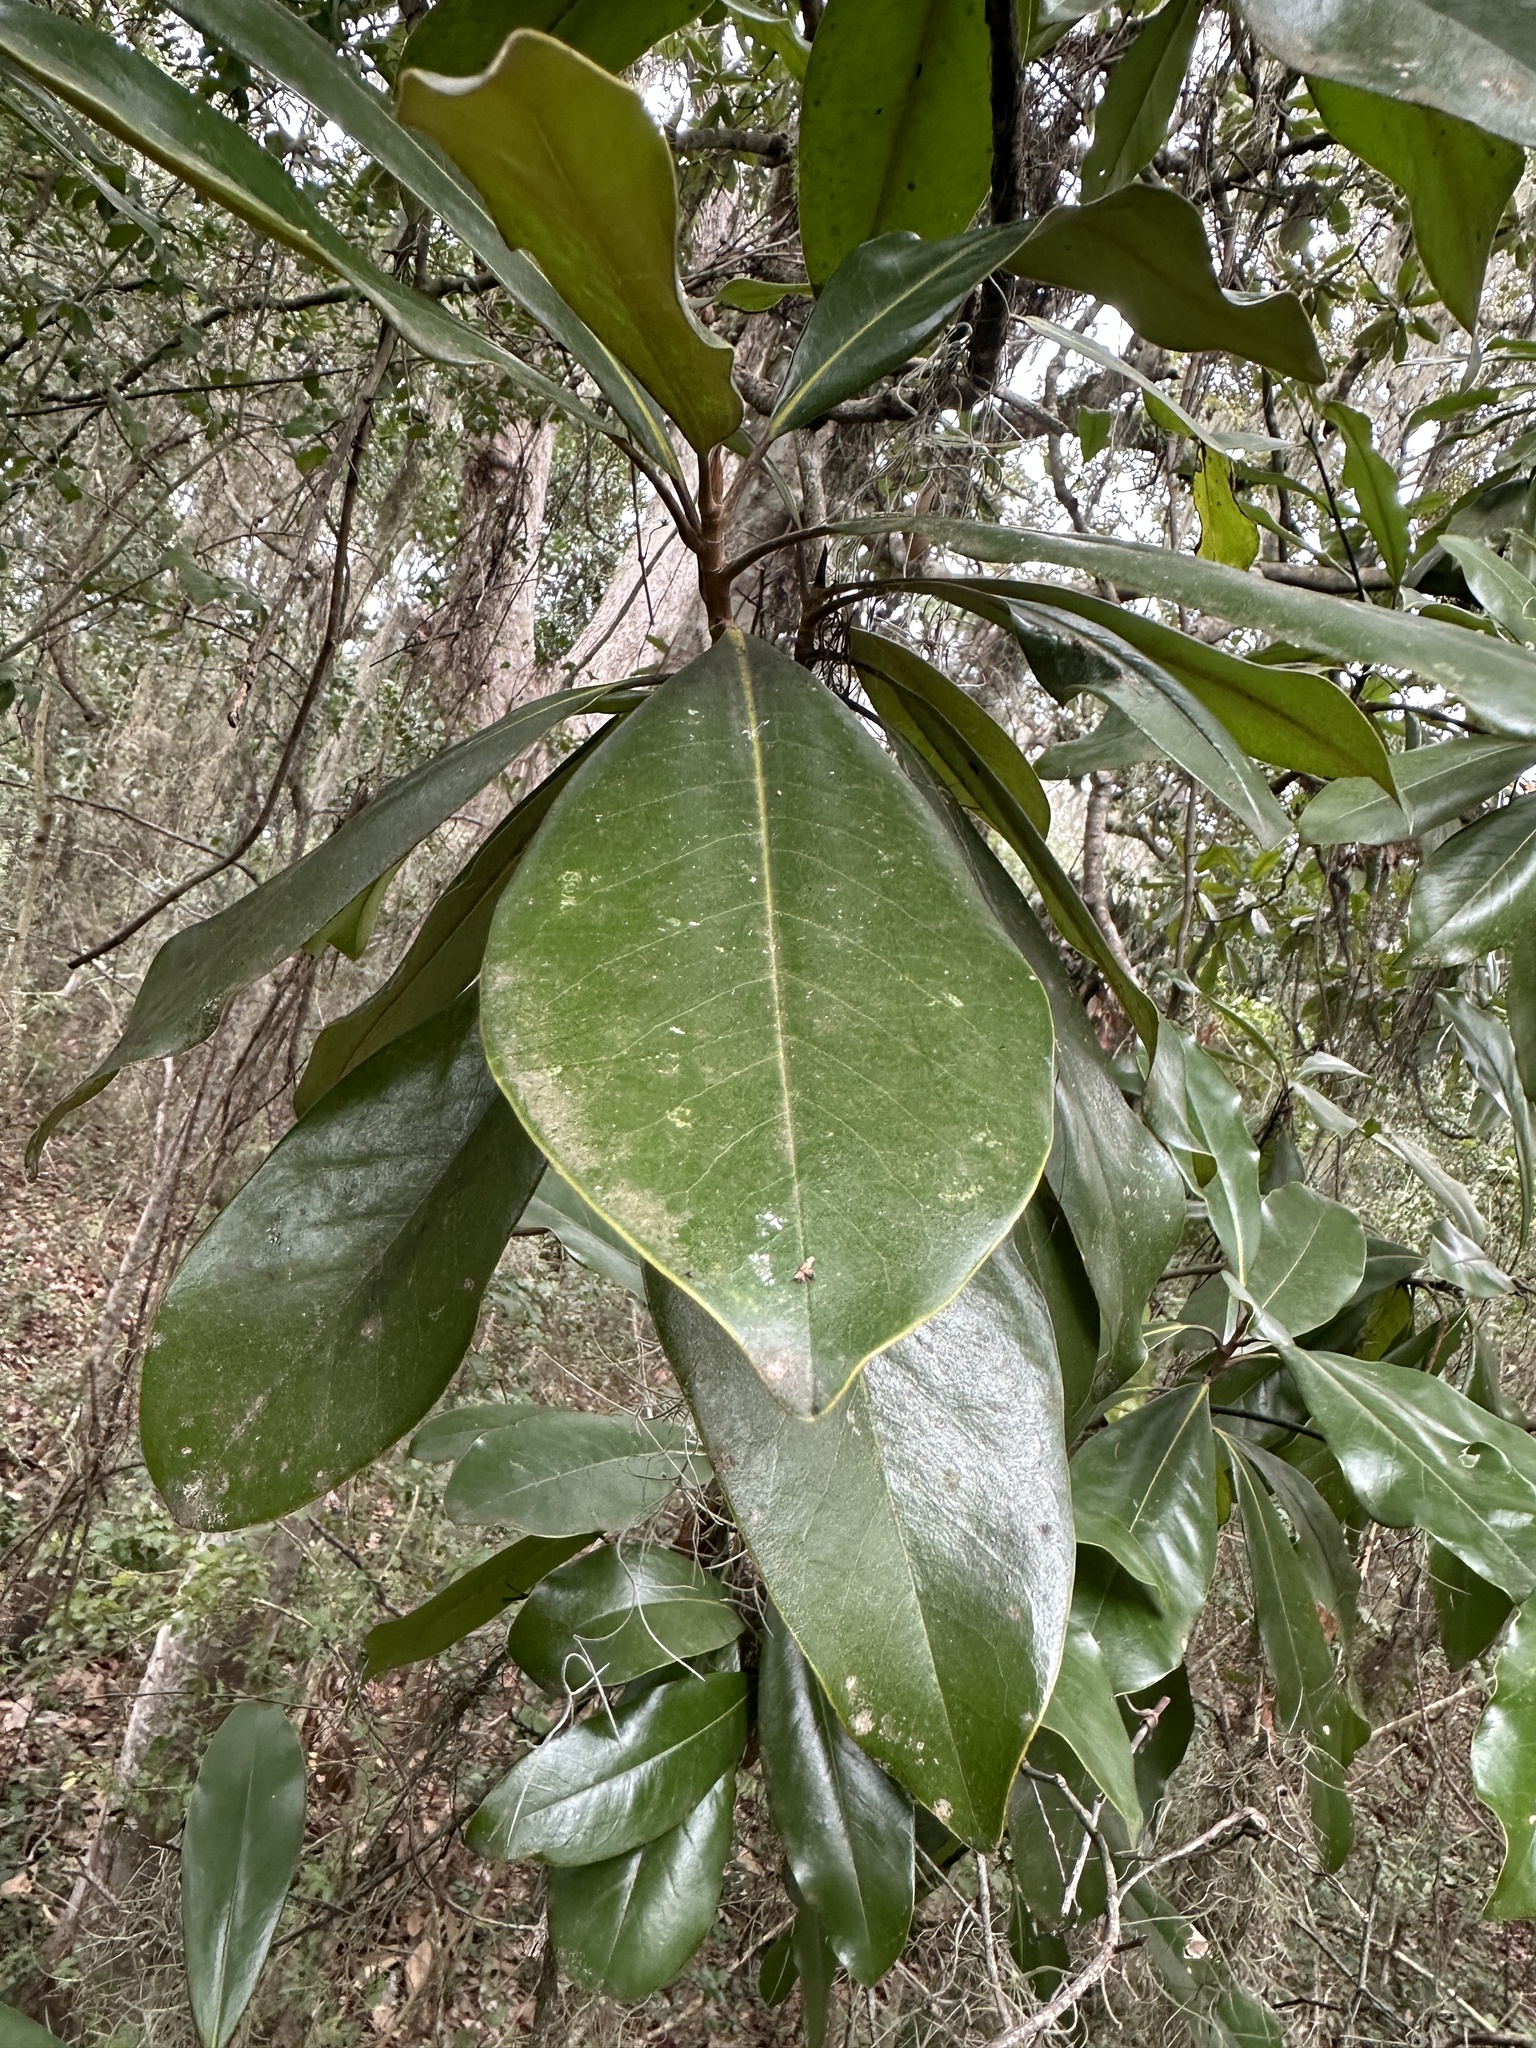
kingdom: Plantae
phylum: Tracheophyta
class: Magnoliopsida
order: Magnoliales
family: Magnoliaceae
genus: Magnolia
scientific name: Magnolia grandiflora
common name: Southern magnolia
